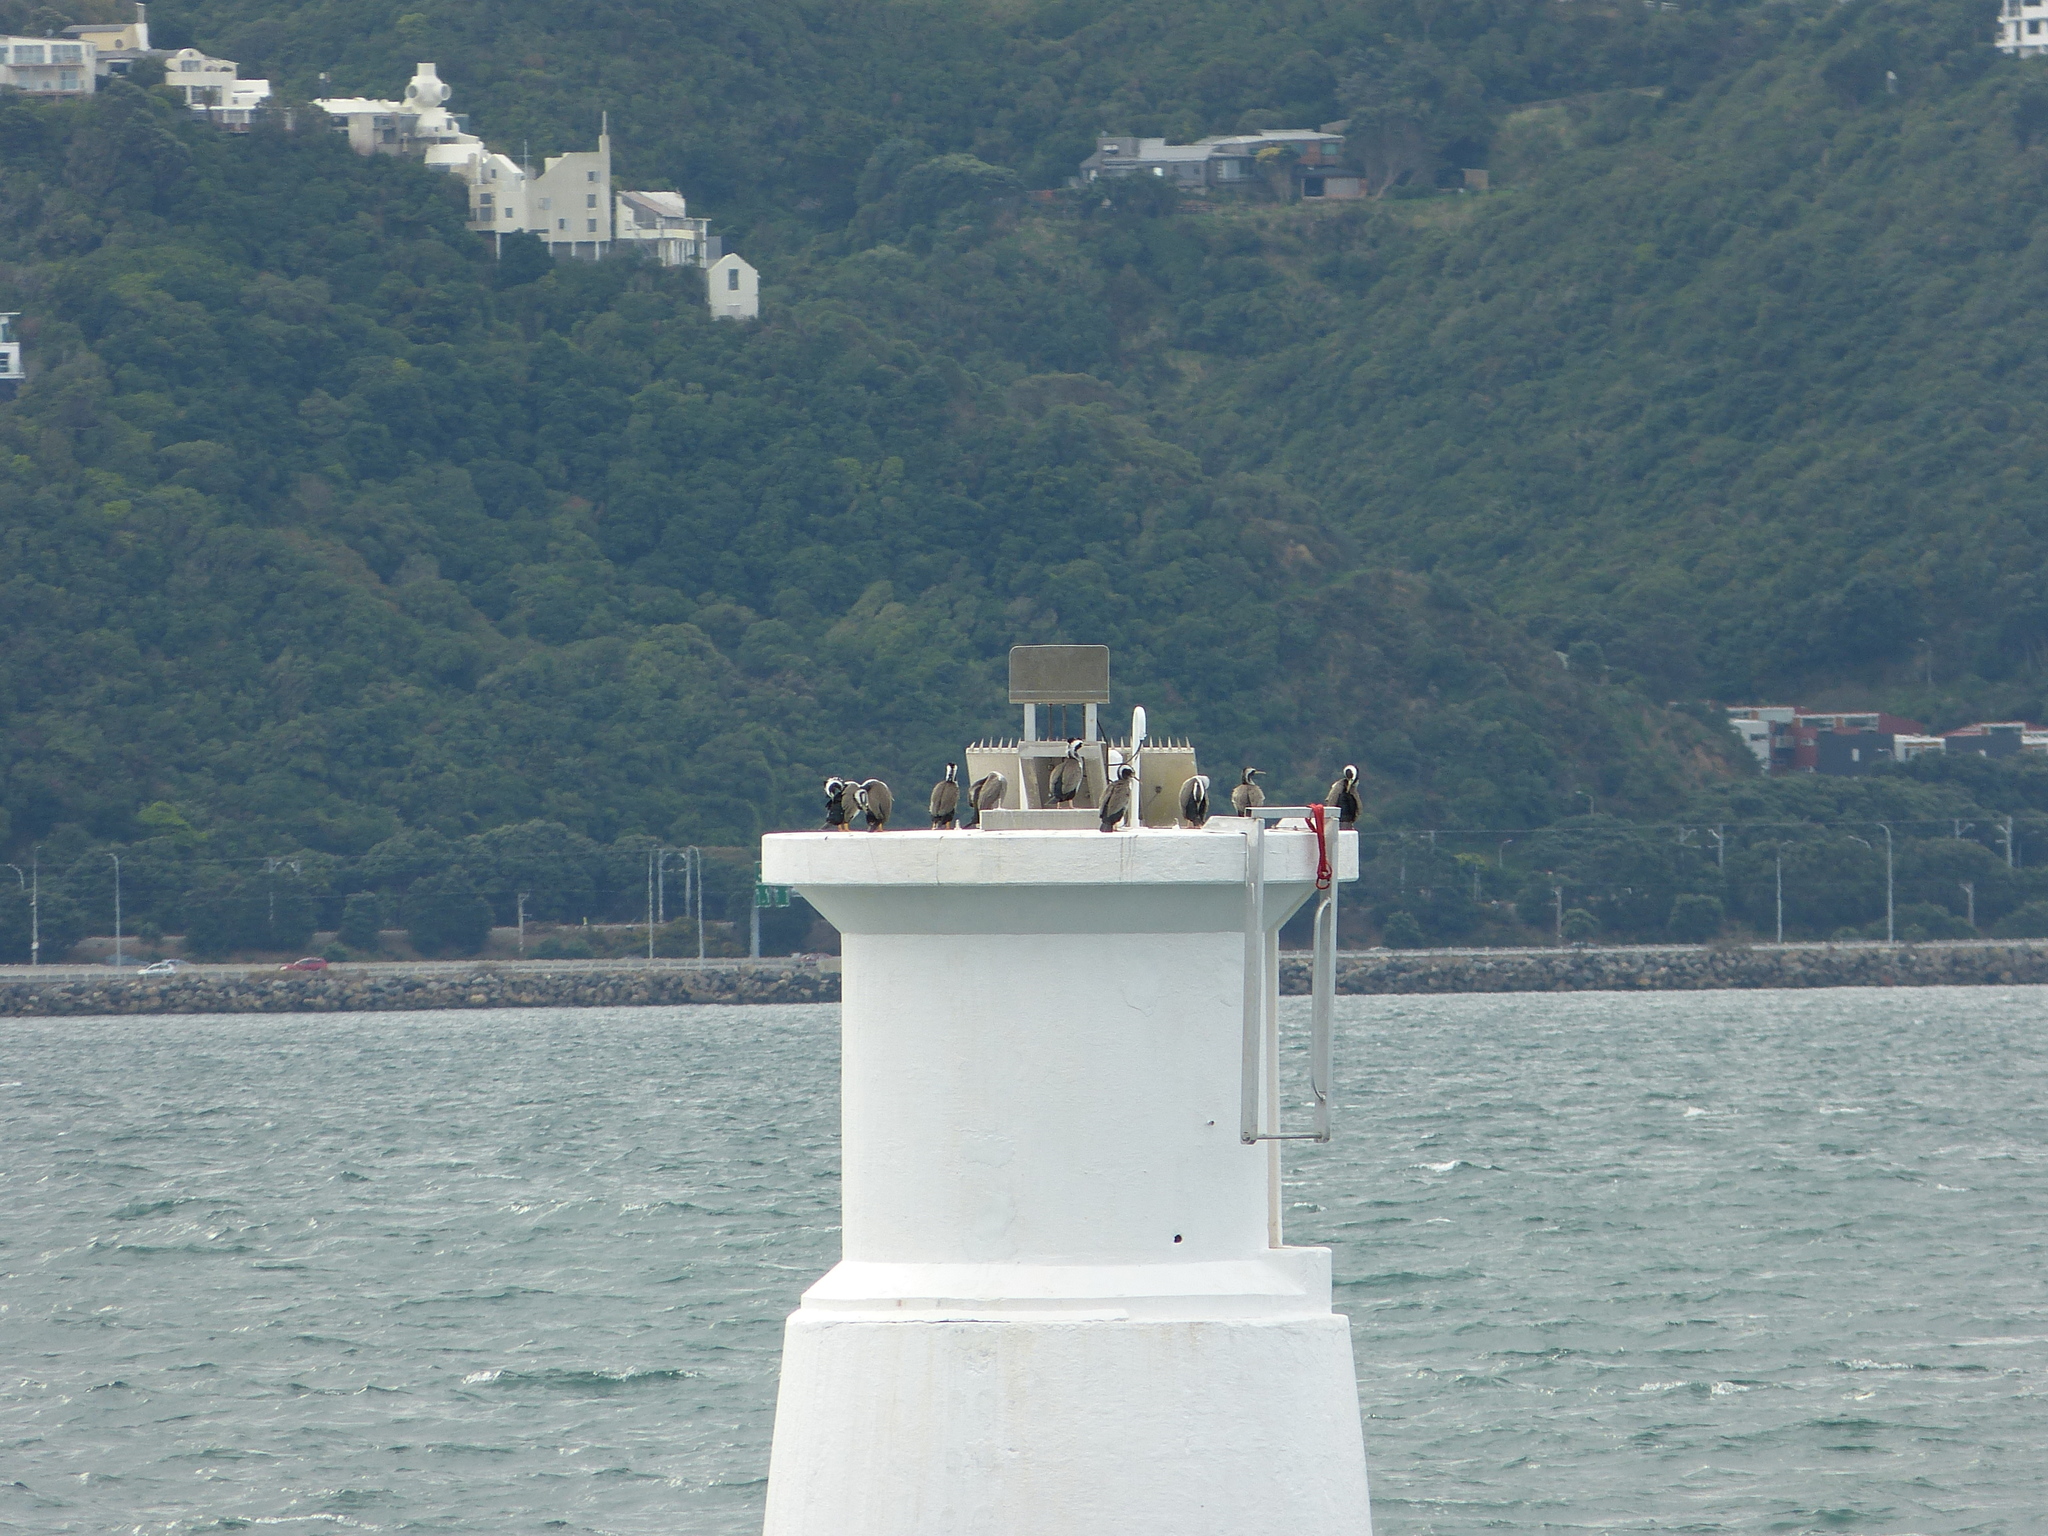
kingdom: Animalia
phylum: Chordata
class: Aves
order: Suliformes
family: Phalacrocoracidae
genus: Phalacrocorax
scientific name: Phalacrocorax punctatus
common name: Spotted shag
